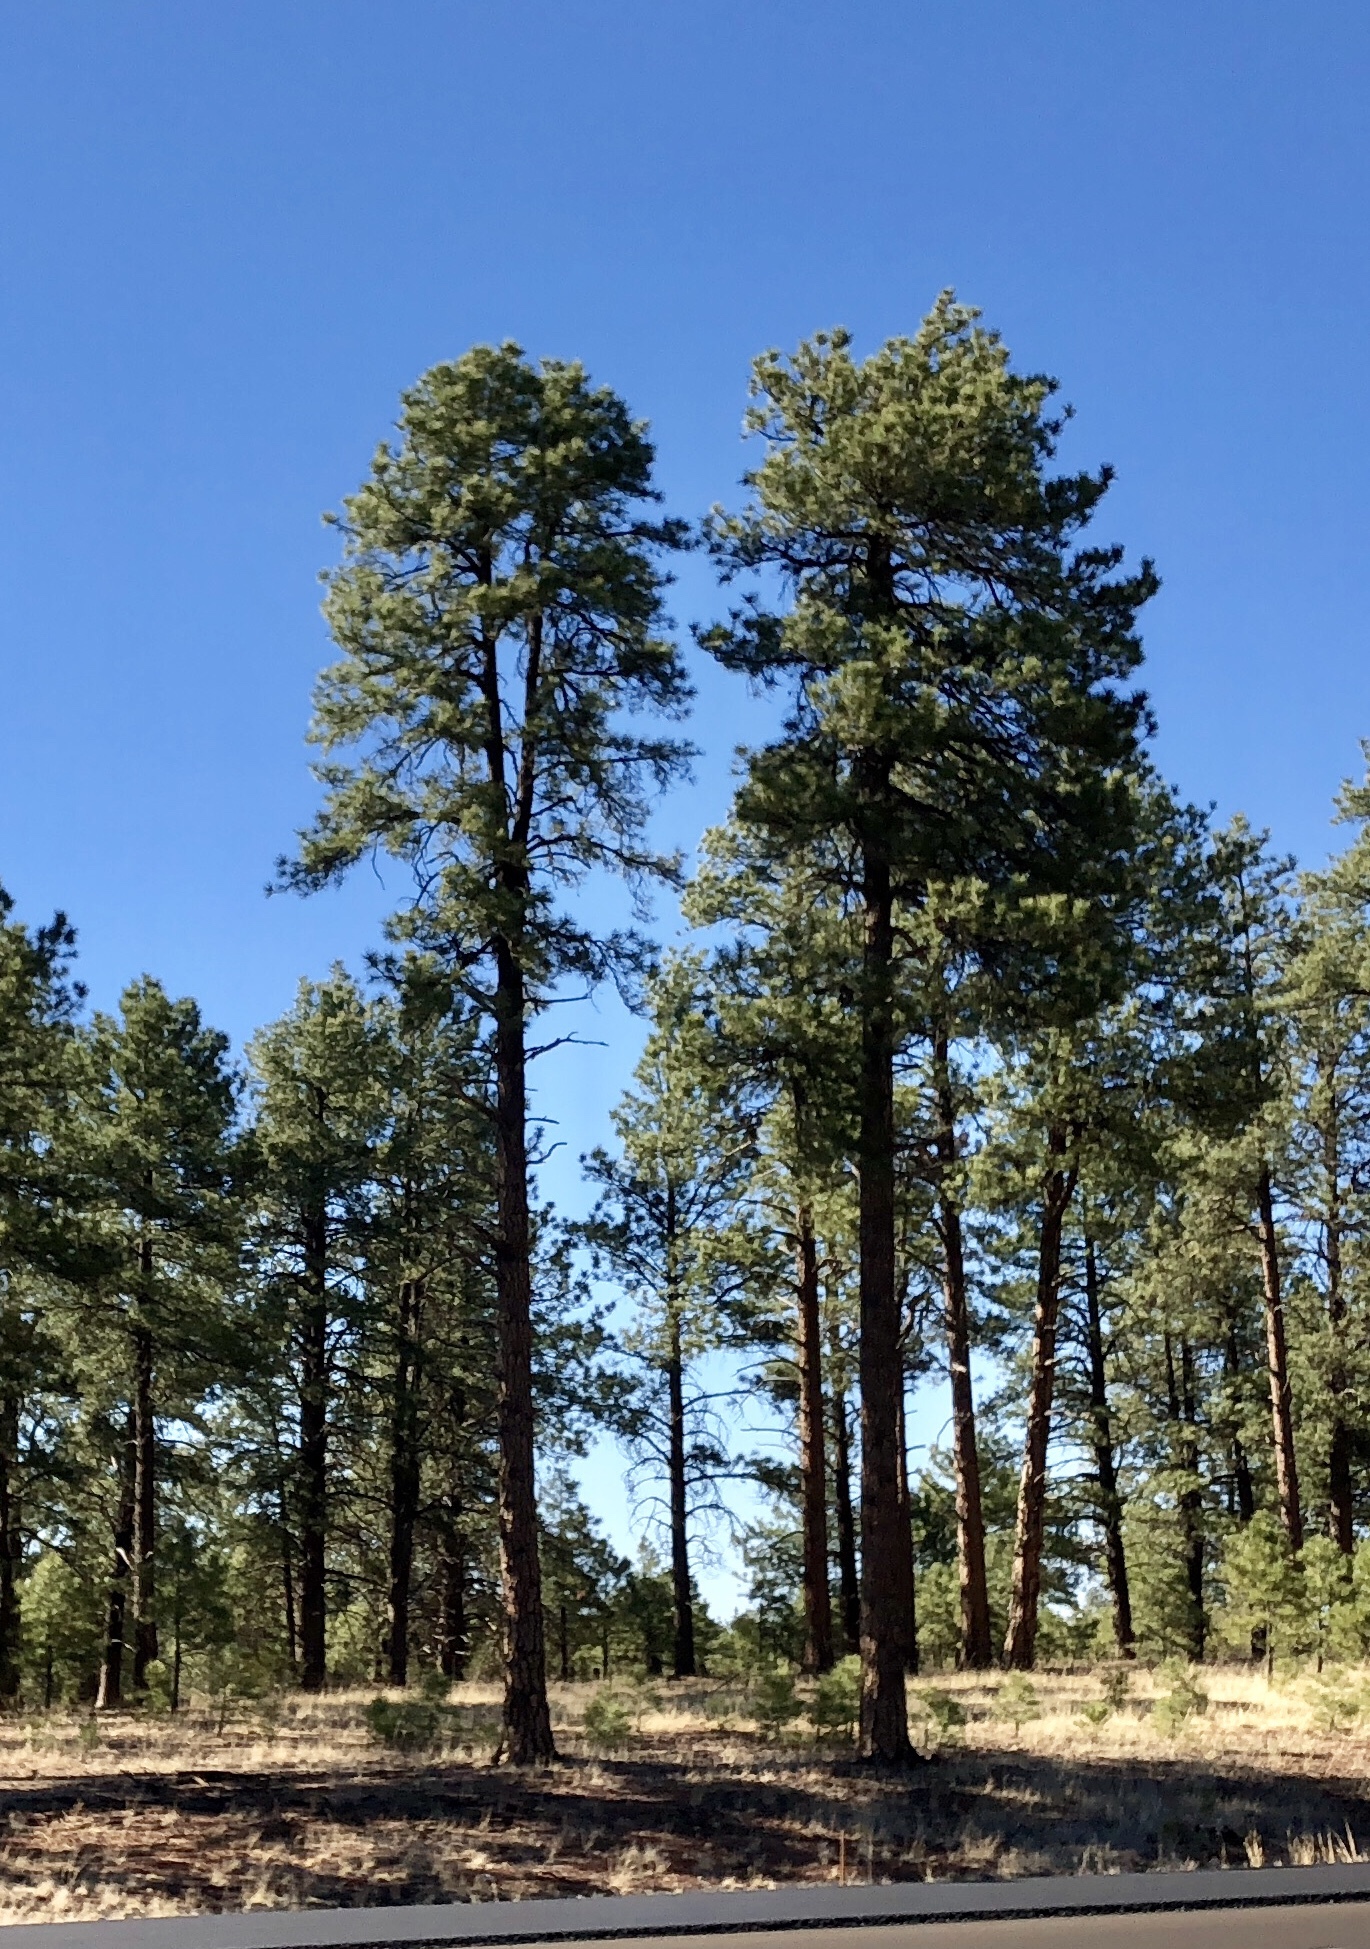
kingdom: Plantae
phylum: Tracheophyta
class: Pinopsida
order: Pinales
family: Pinaceae
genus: Pinus
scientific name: Pinus ponderosa
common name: Western yellow-pine
